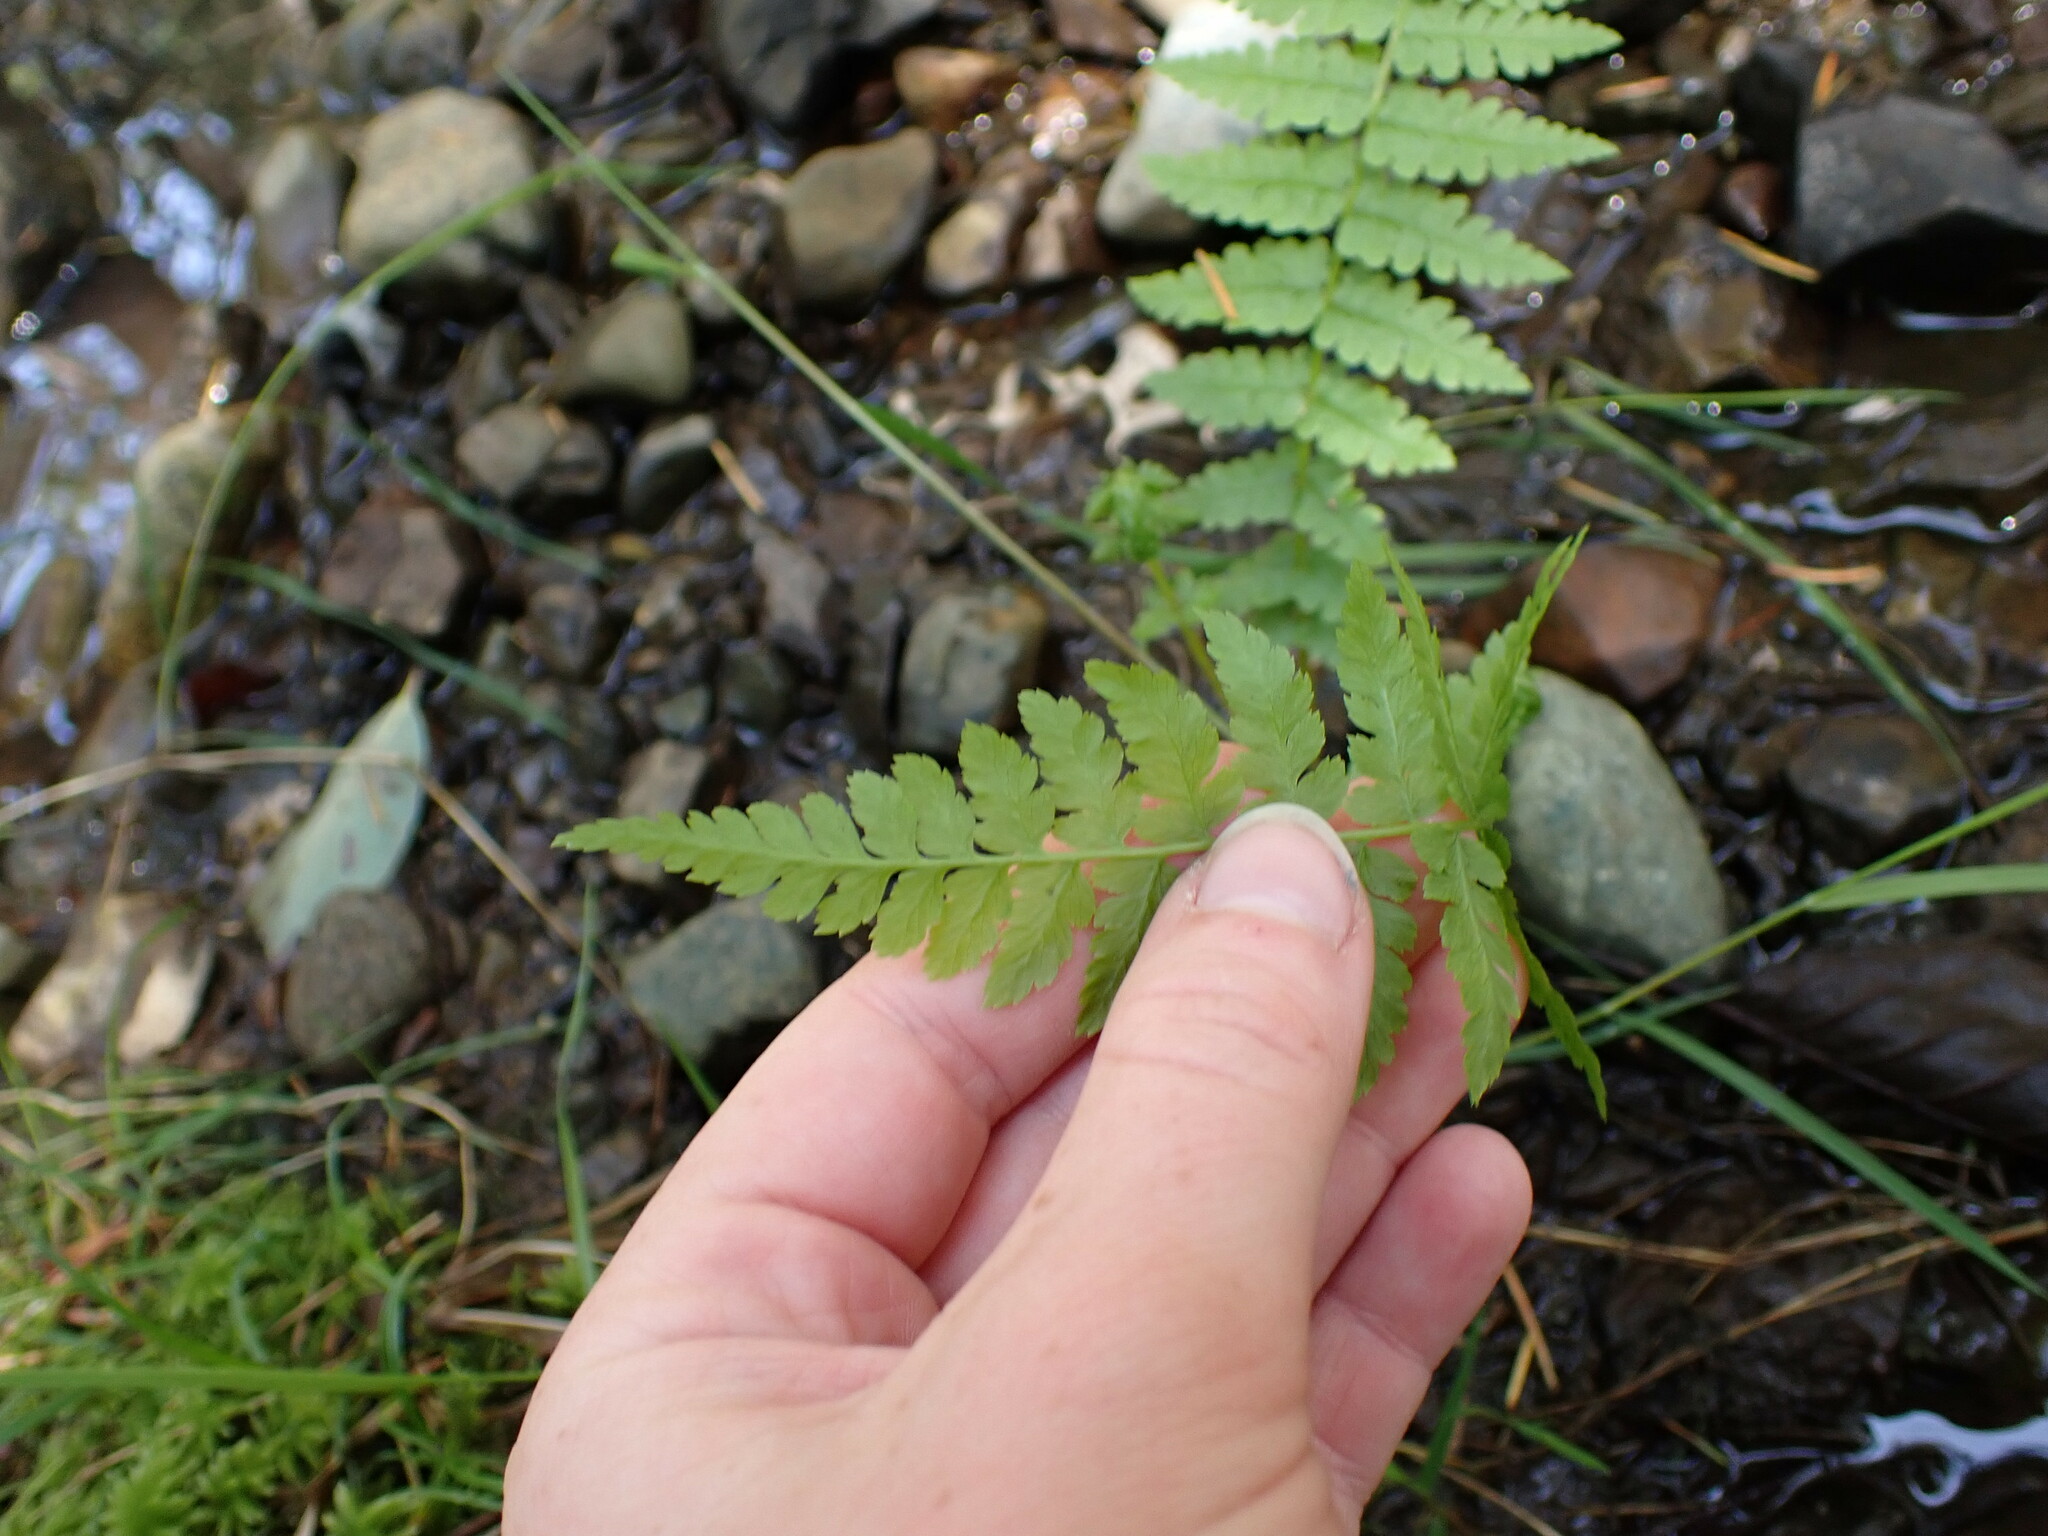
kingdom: Plantae
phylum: Tracheophyta
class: Polypodiopsida
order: Polypodiales
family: Athyriaceae
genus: Athyrium
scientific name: Athyrium filix-femina
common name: Lady fern
